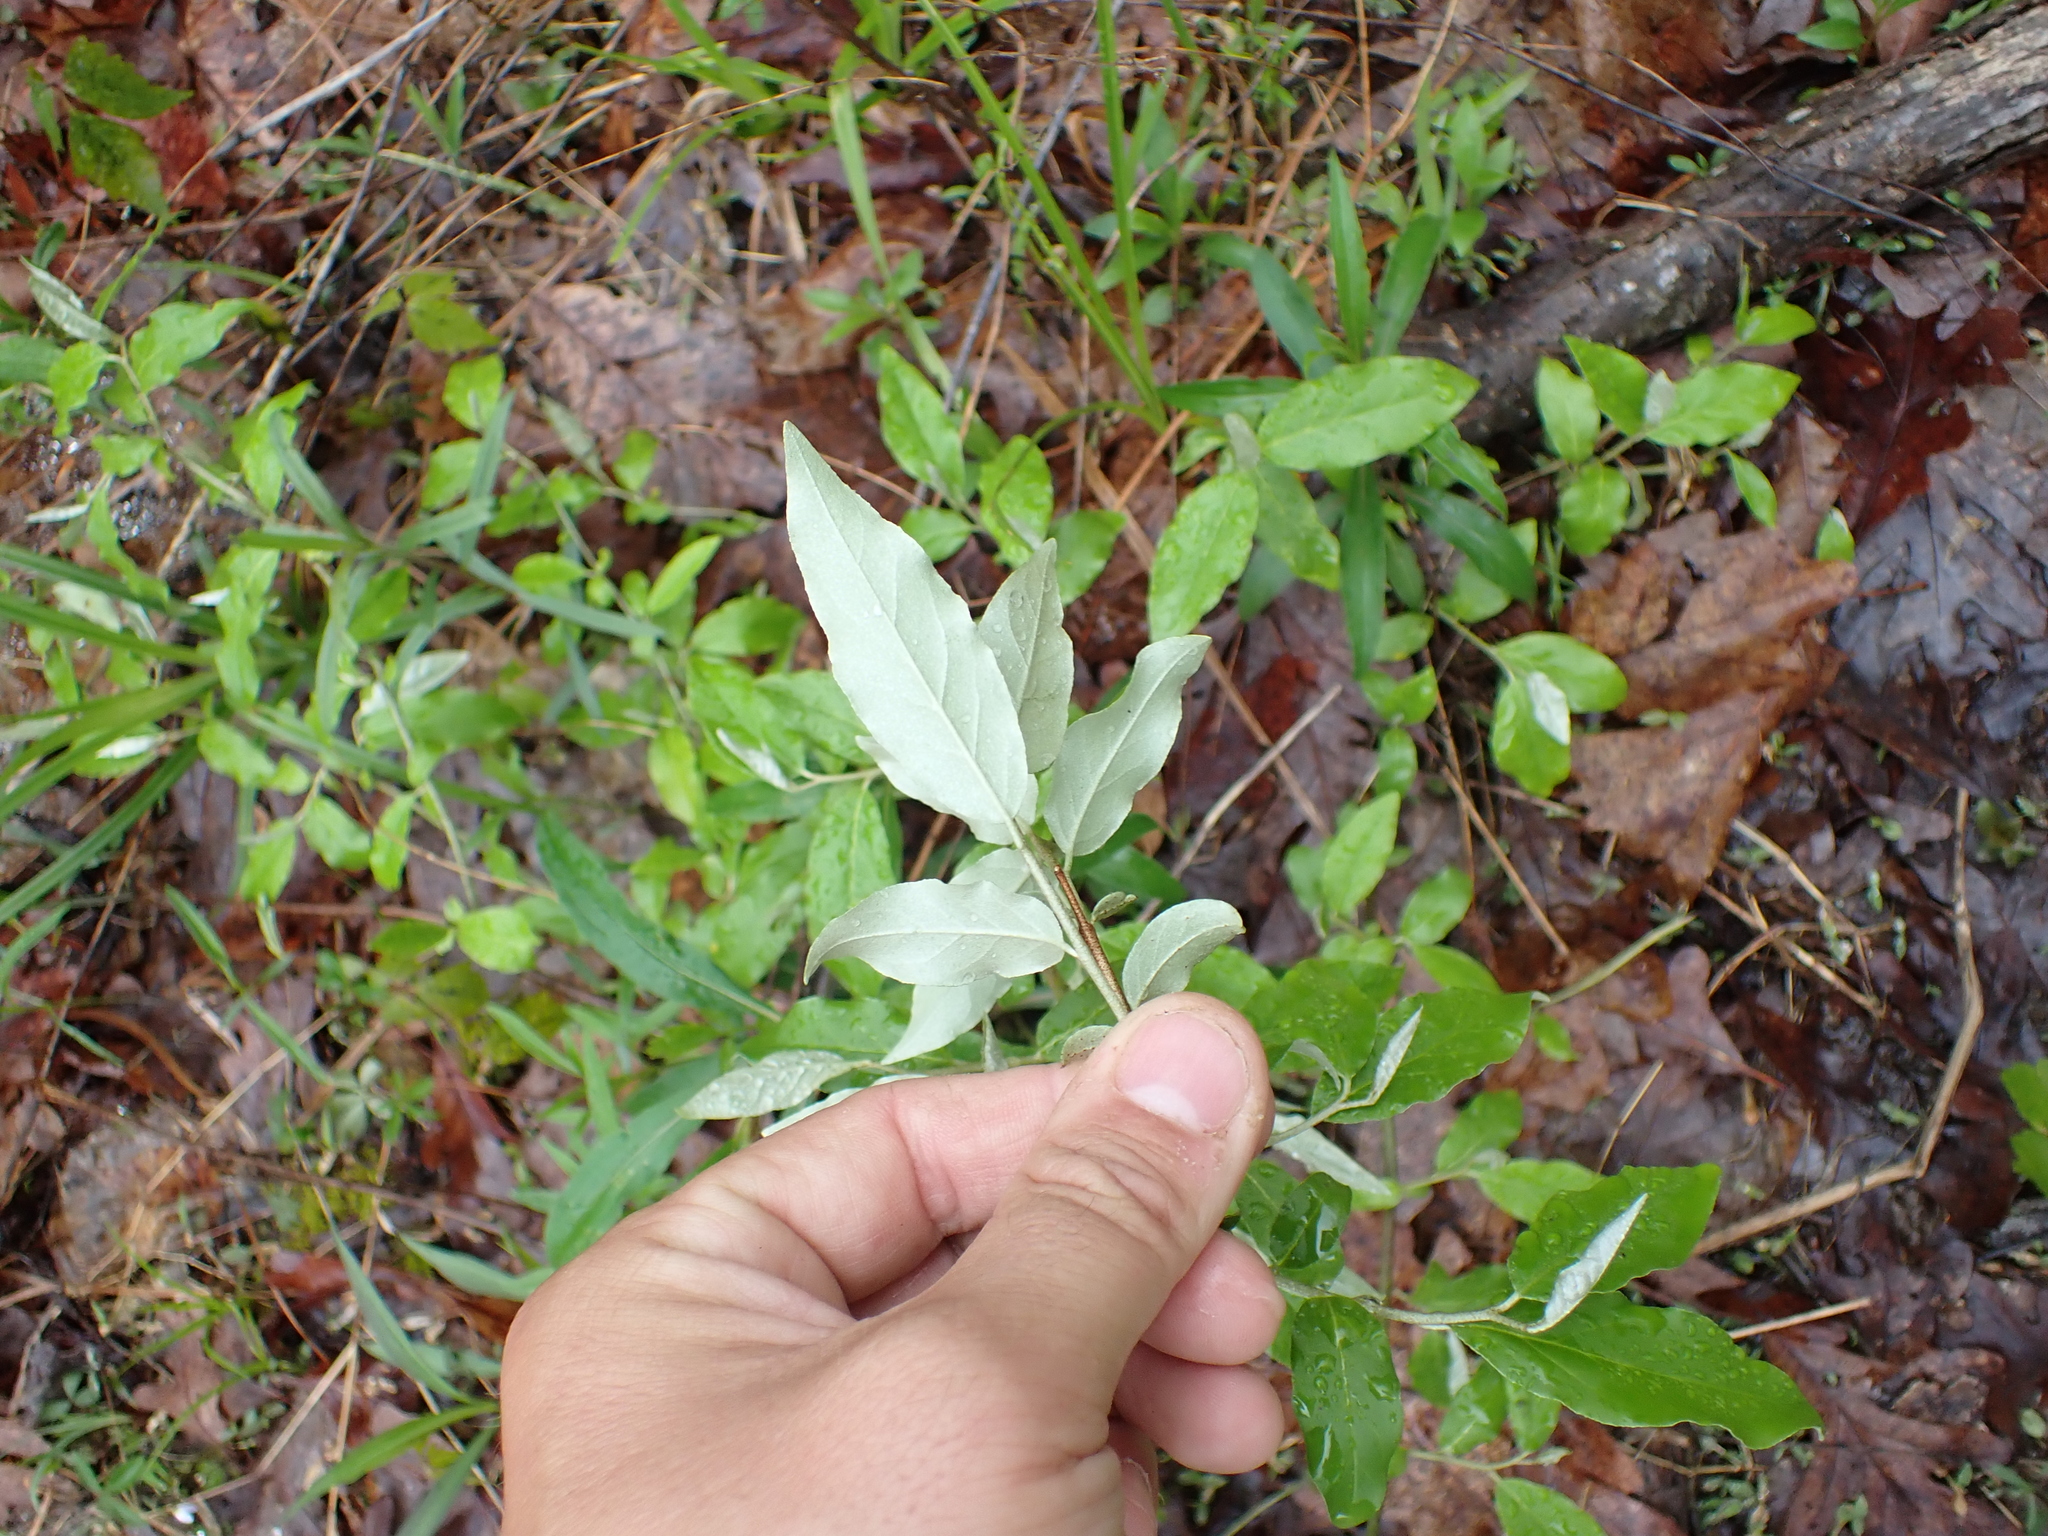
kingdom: Plantae
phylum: Tracheophyta
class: Magnoliopsida
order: Rosales
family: Elaeagnaceae
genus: Elaeagnus
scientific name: Elaeagnus umbellata
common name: Autumn olive
